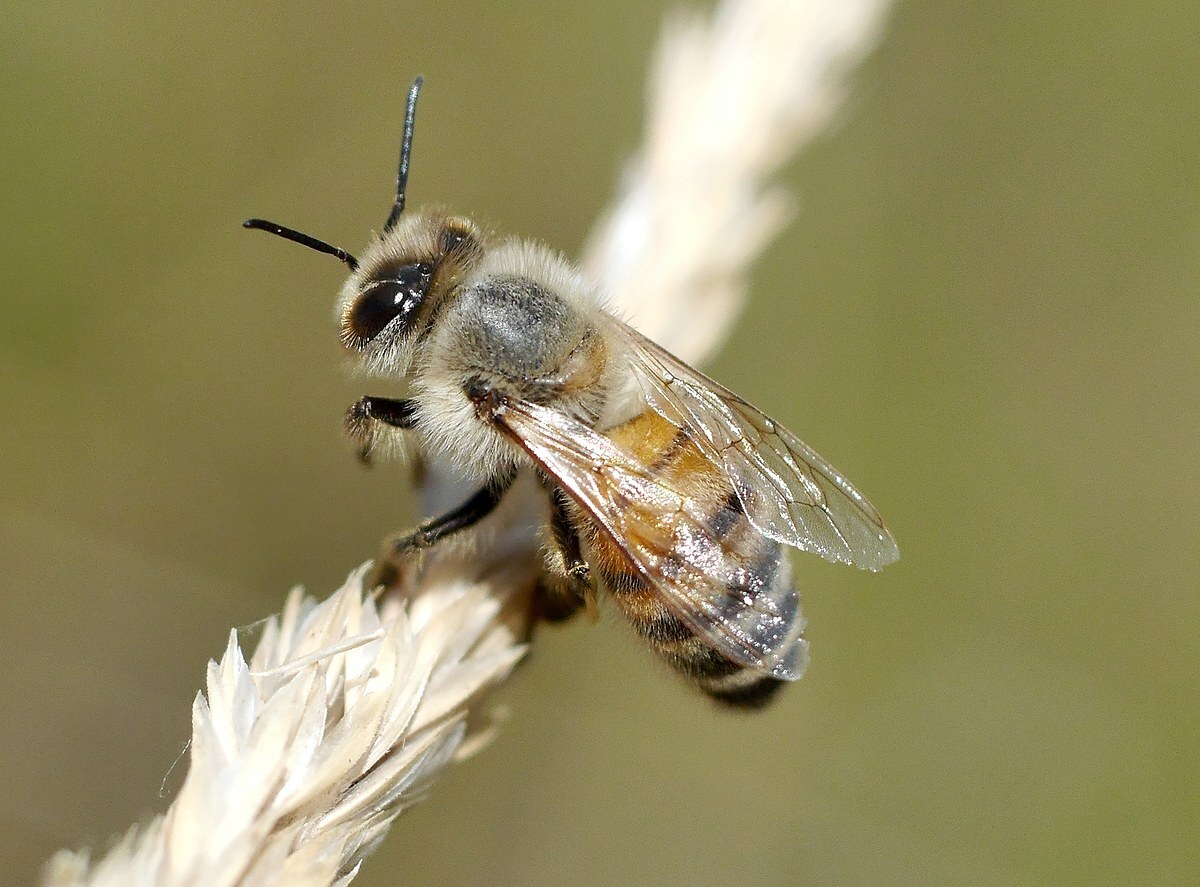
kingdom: Animalia
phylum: Arthropoda
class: Insecta
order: Hymenoptera
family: Apidae
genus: Apis
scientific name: Apis mellifera
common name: Honey bee
